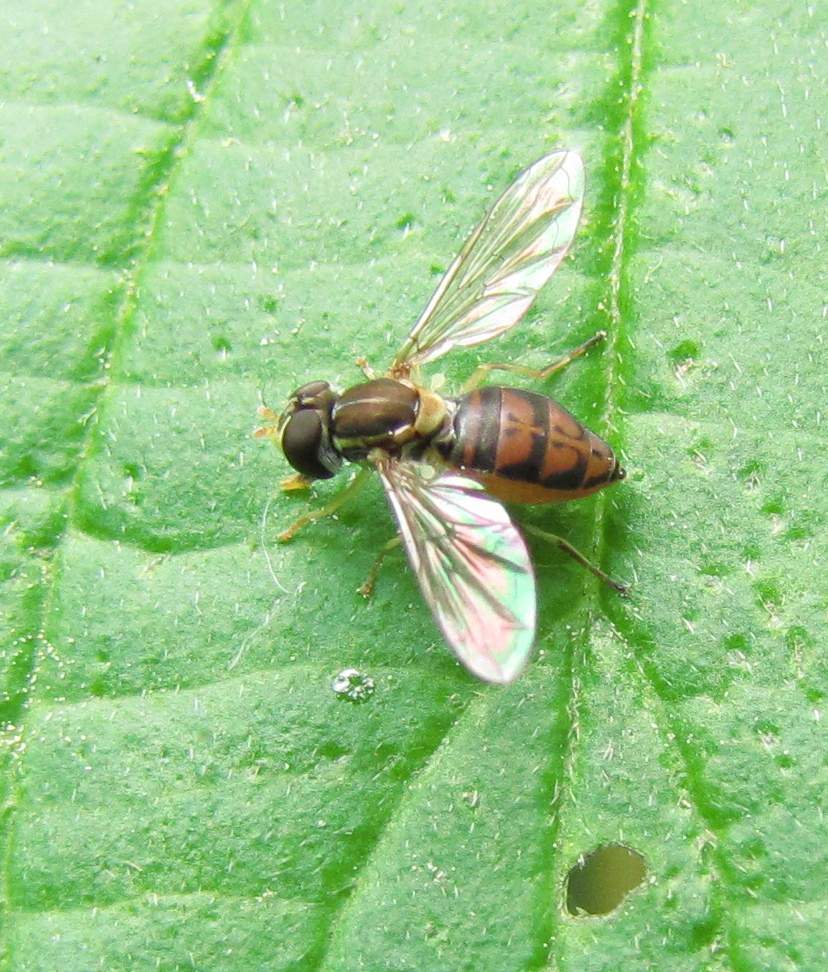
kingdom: Animalia
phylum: Arthropoda
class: Insecta
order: Diptera
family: Syrphidae
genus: Toxomerus
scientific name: Toxomerus marginatus
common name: Syrphid fly
